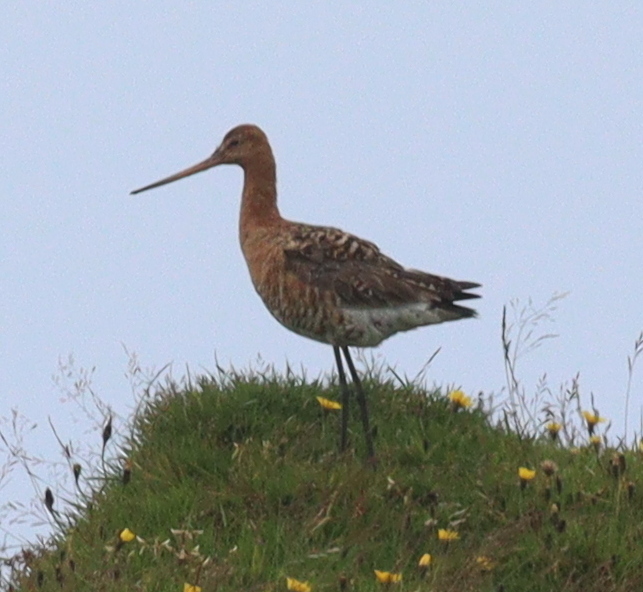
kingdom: Animalia
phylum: Chordata
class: Aves
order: Charadriiformes
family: Scolopacidae
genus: Limosa
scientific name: Limosa limosa
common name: Black-tailed godwit
